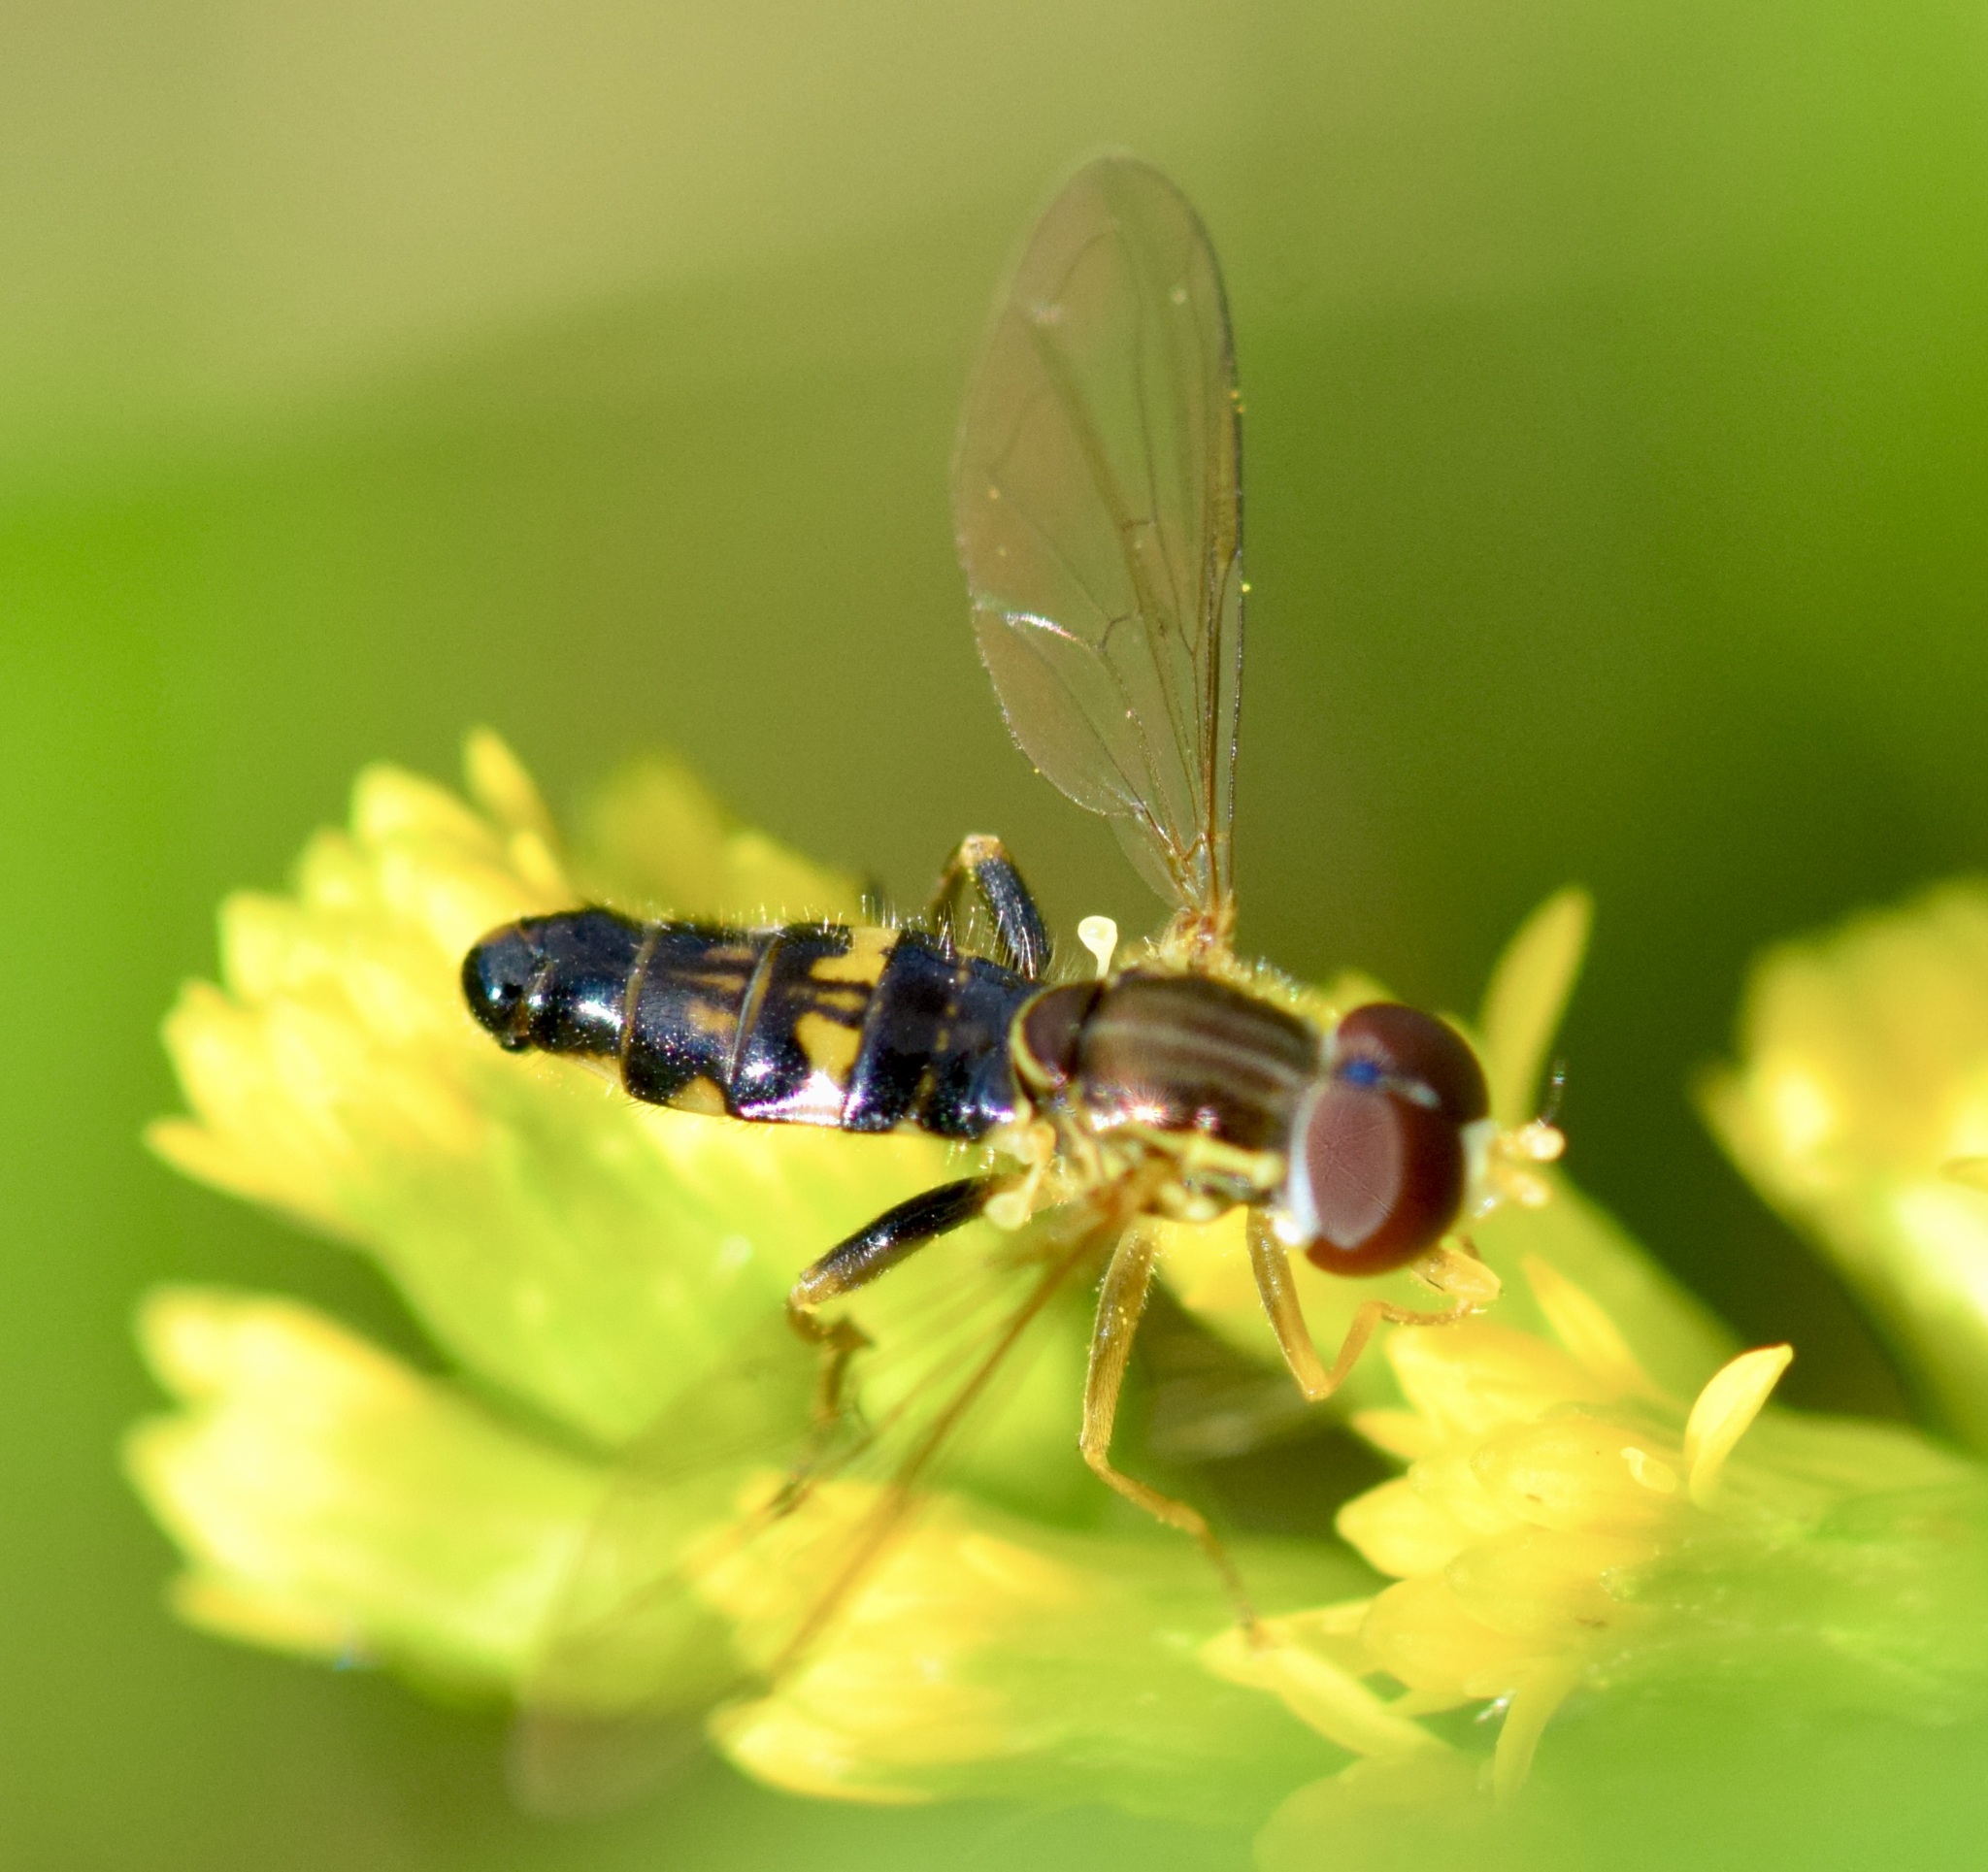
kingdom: Animalia
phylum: Arthropoda
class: Insecta
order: Diptera
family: Syrphidae
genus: Toxomerus
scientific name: Toxomerus geminatus
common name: Eastern calligrapher
